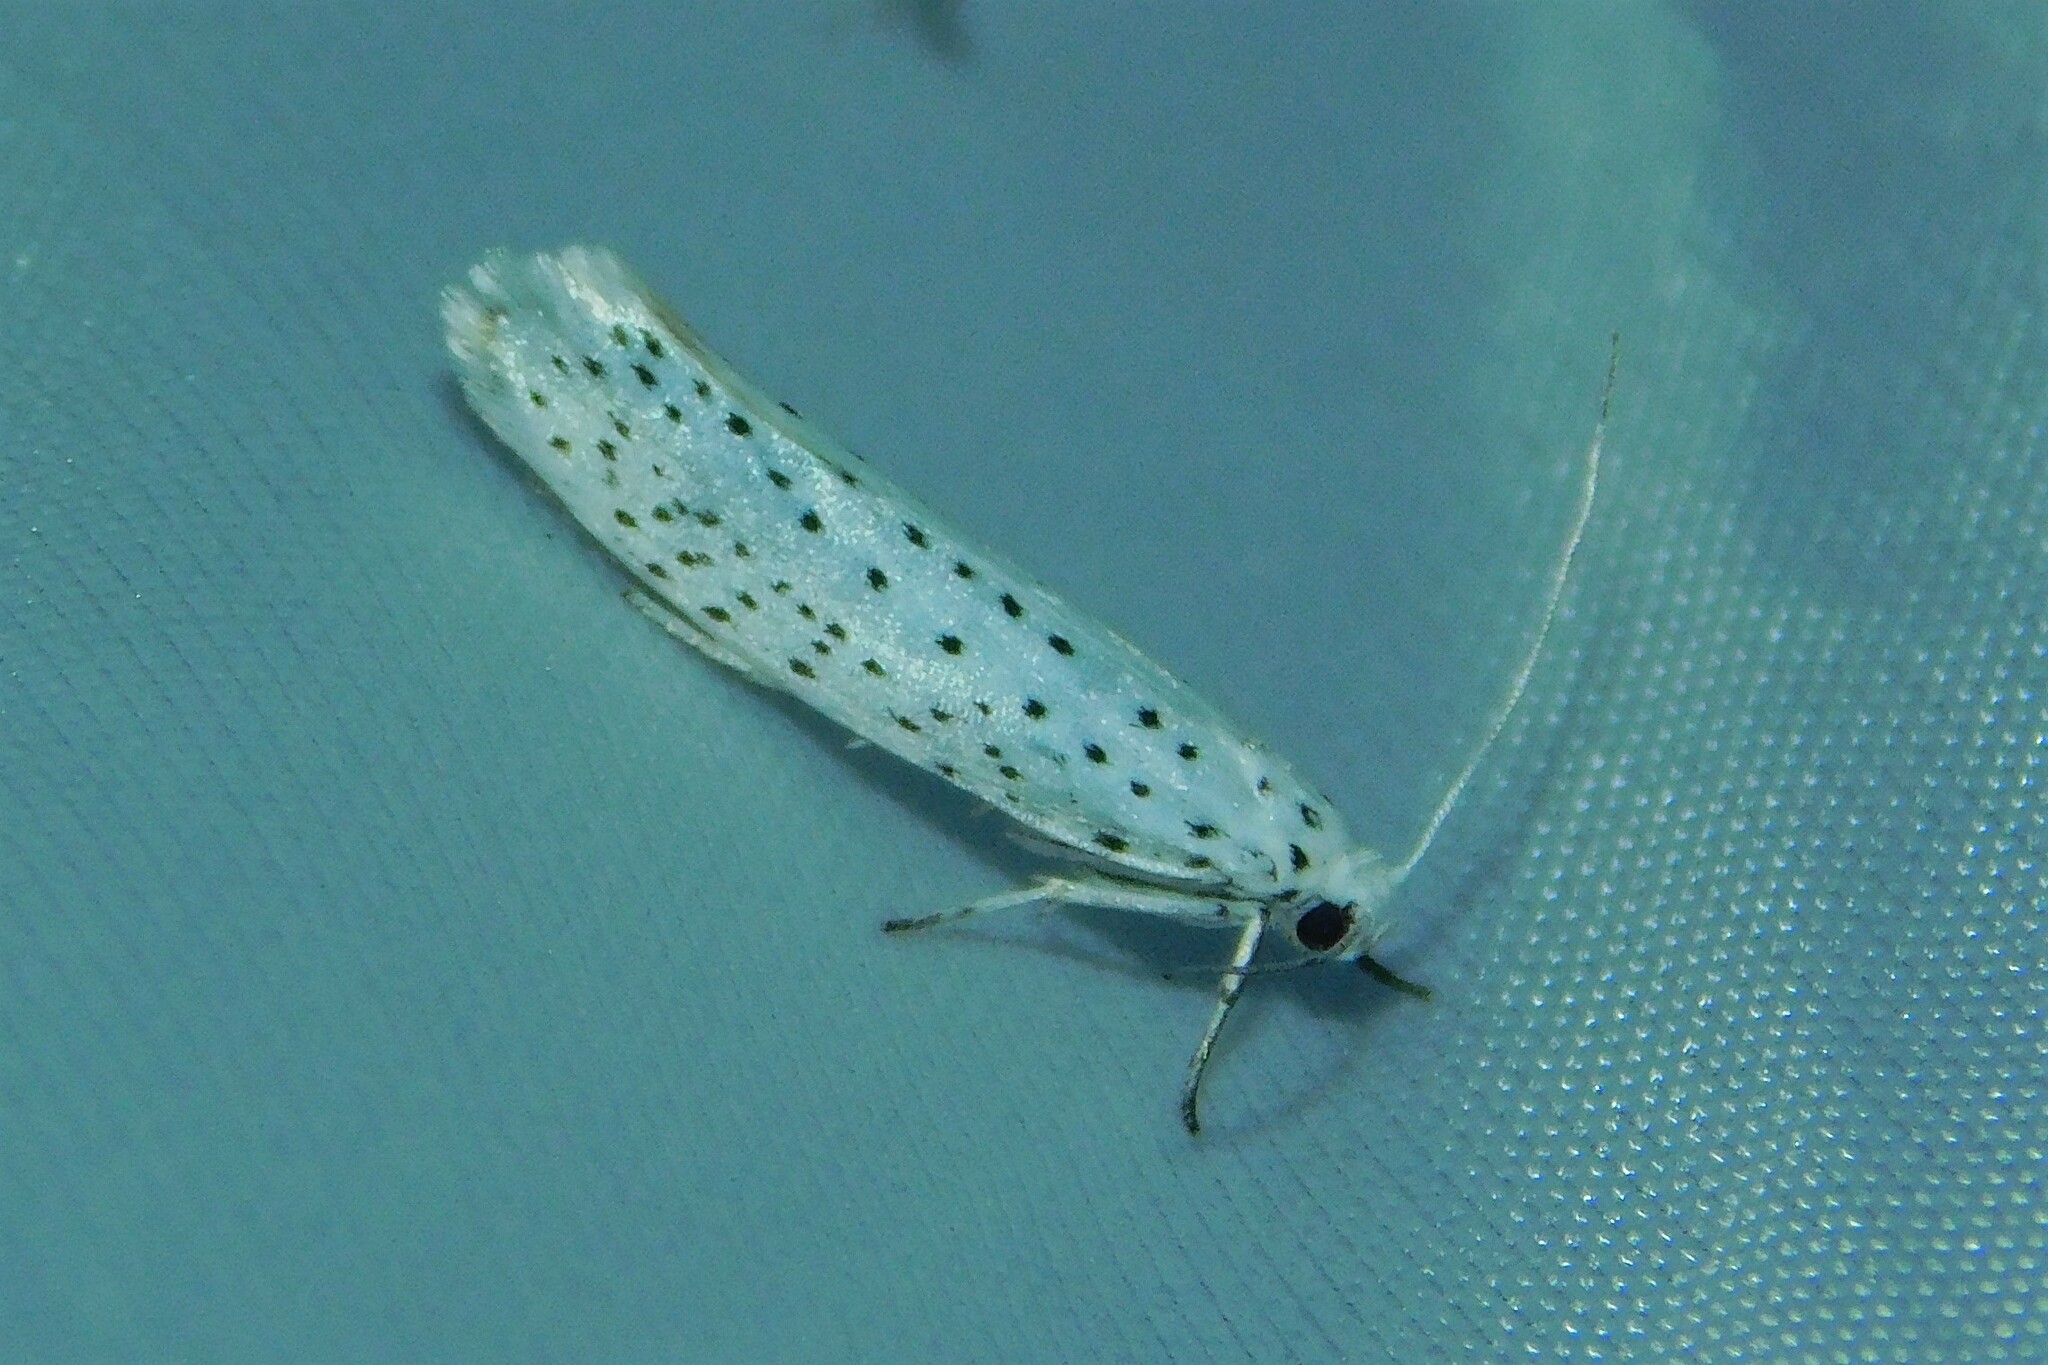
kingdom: Animalia
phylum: Arthropoda
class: Insecta
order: Lepidoptera
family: Yponomeutidae
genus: Yponomeuta
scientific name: Yponomeuta evonymella
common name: Bird-cherry ermine
